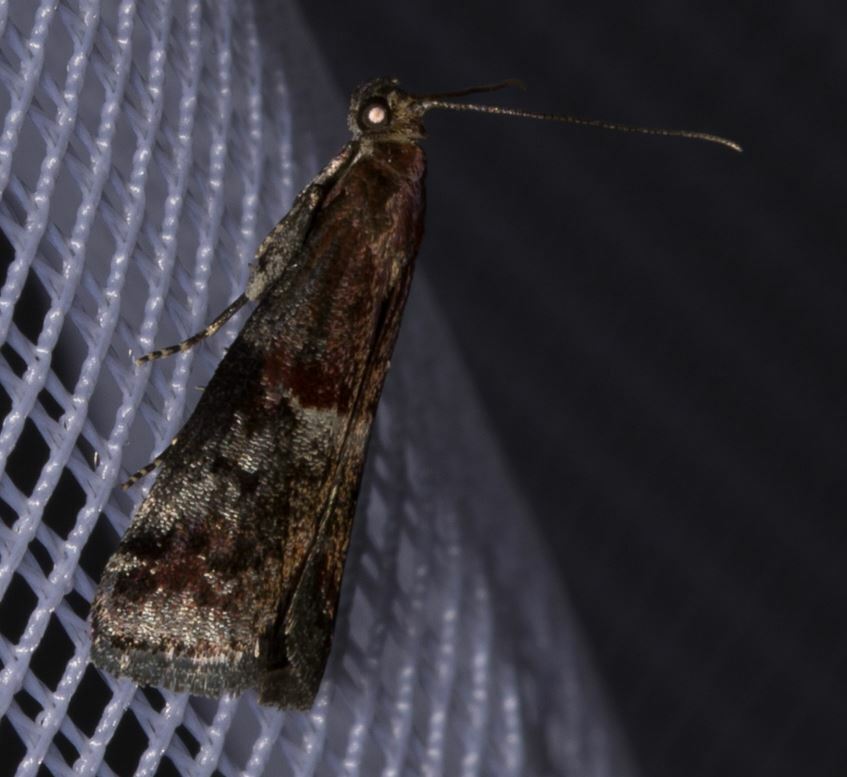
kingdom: Animalia
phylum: Arthropoda
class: Insecta
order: Lepidoptera
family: Pyralidae
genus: Acrobasis
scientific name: Acrobasis marmorea
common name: Marbled knot-horn
